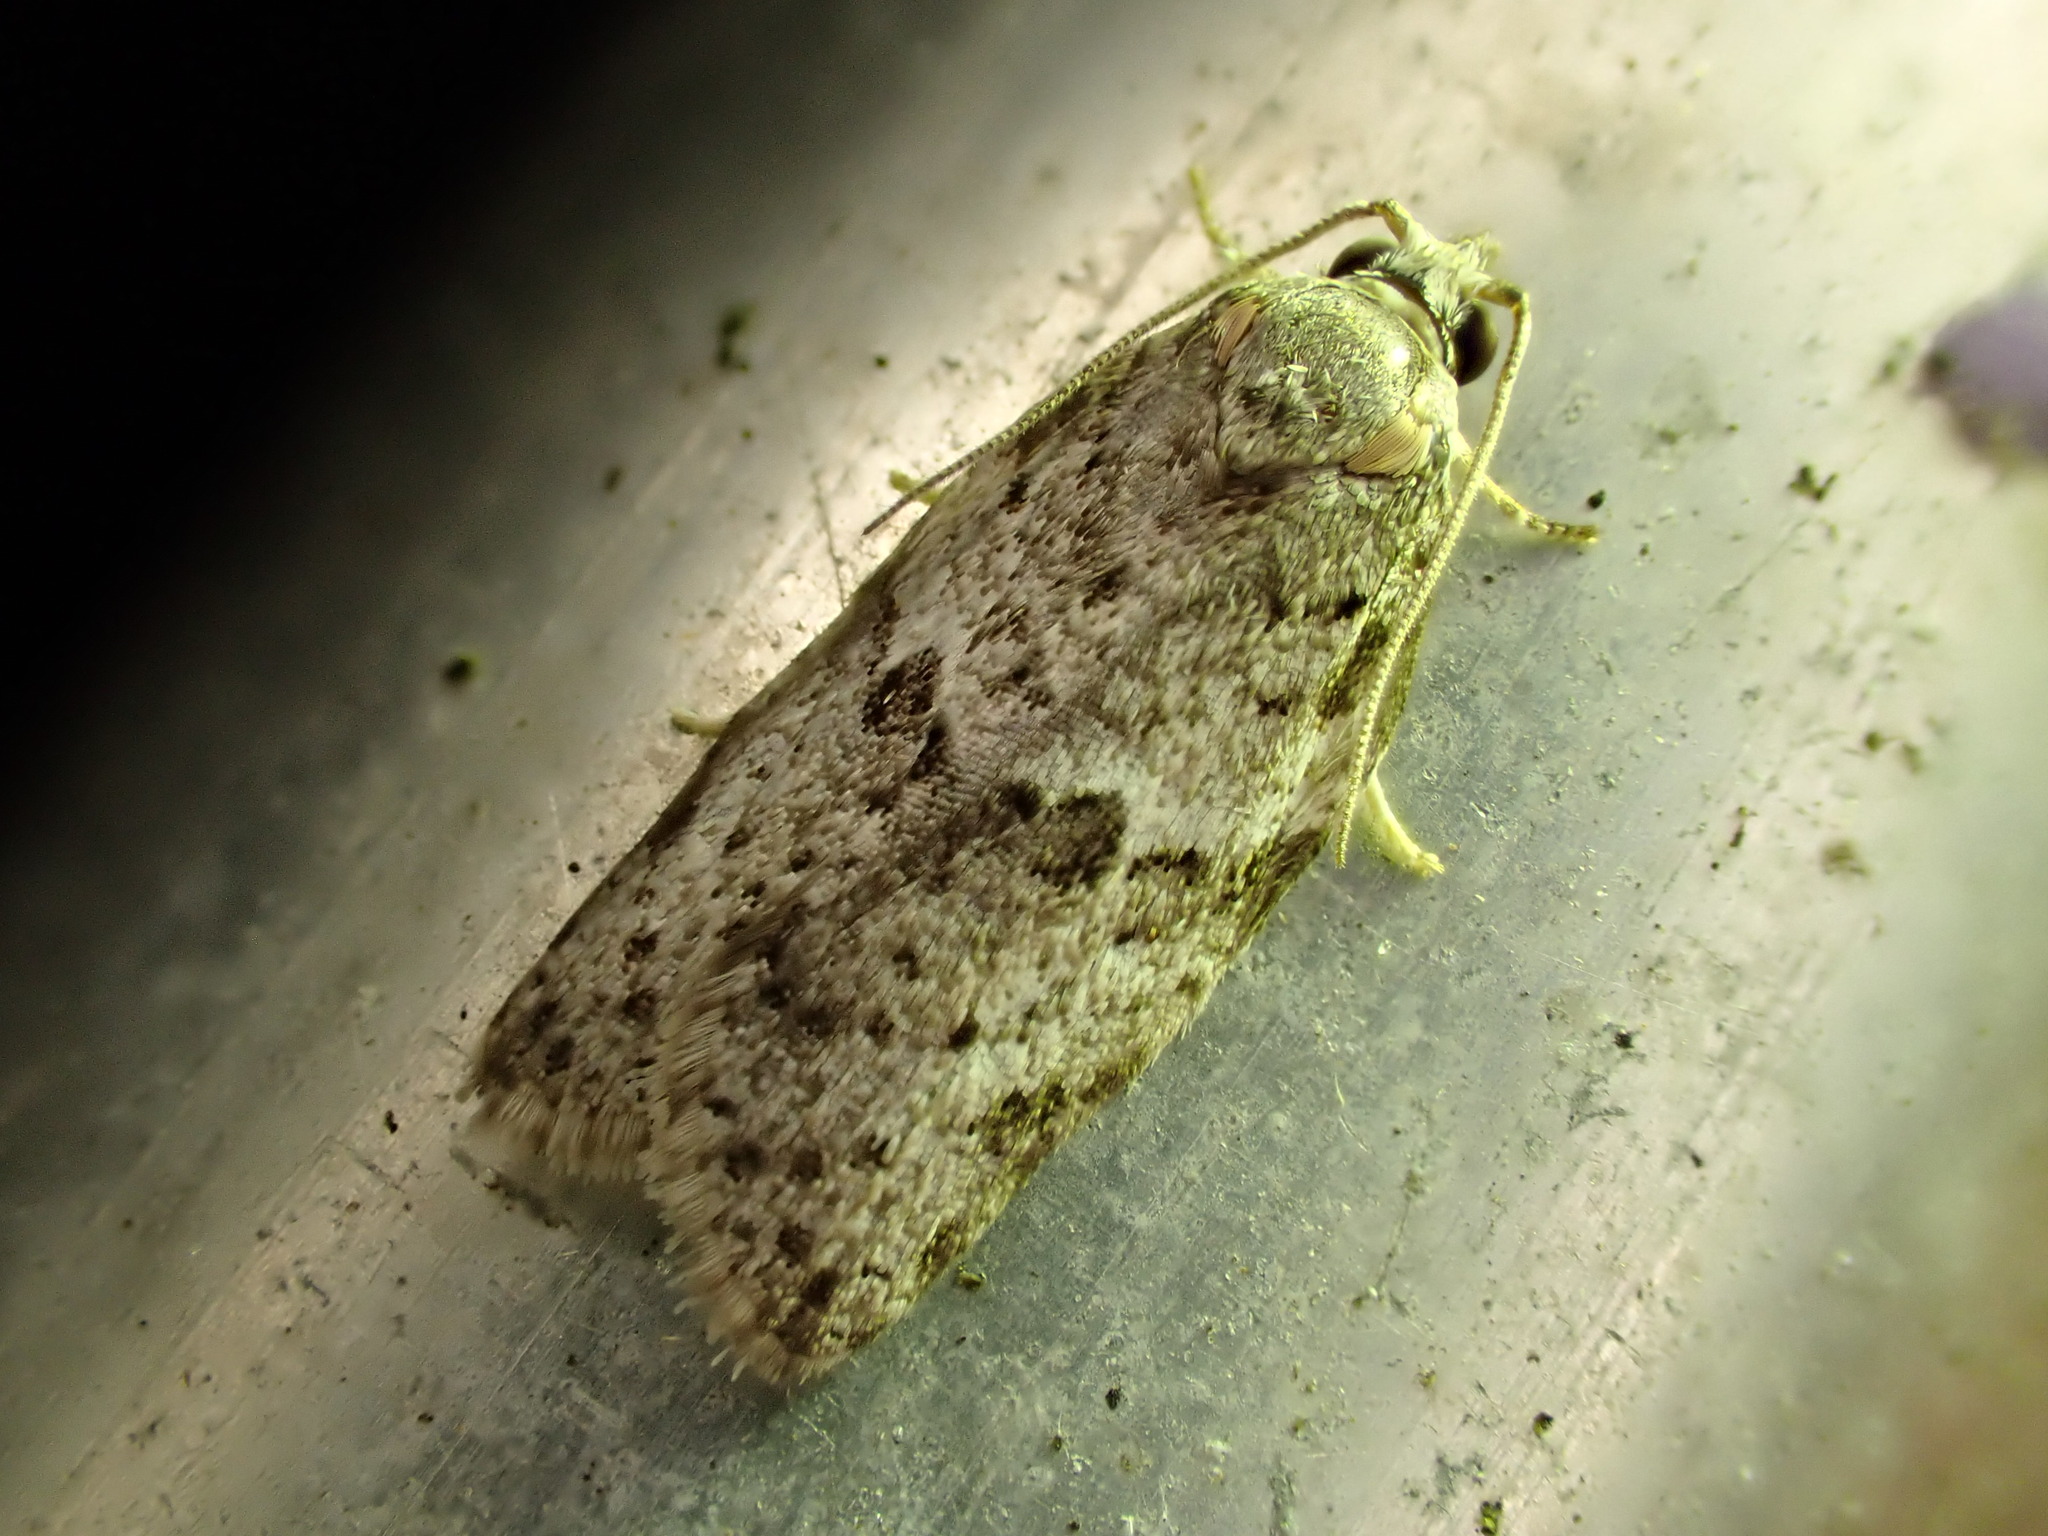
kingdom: Animalia
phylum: Arthropoda
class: Insecta
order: Lepidoptera
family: Tortricidae
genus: Isotenes
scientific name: Isotenes miserana
